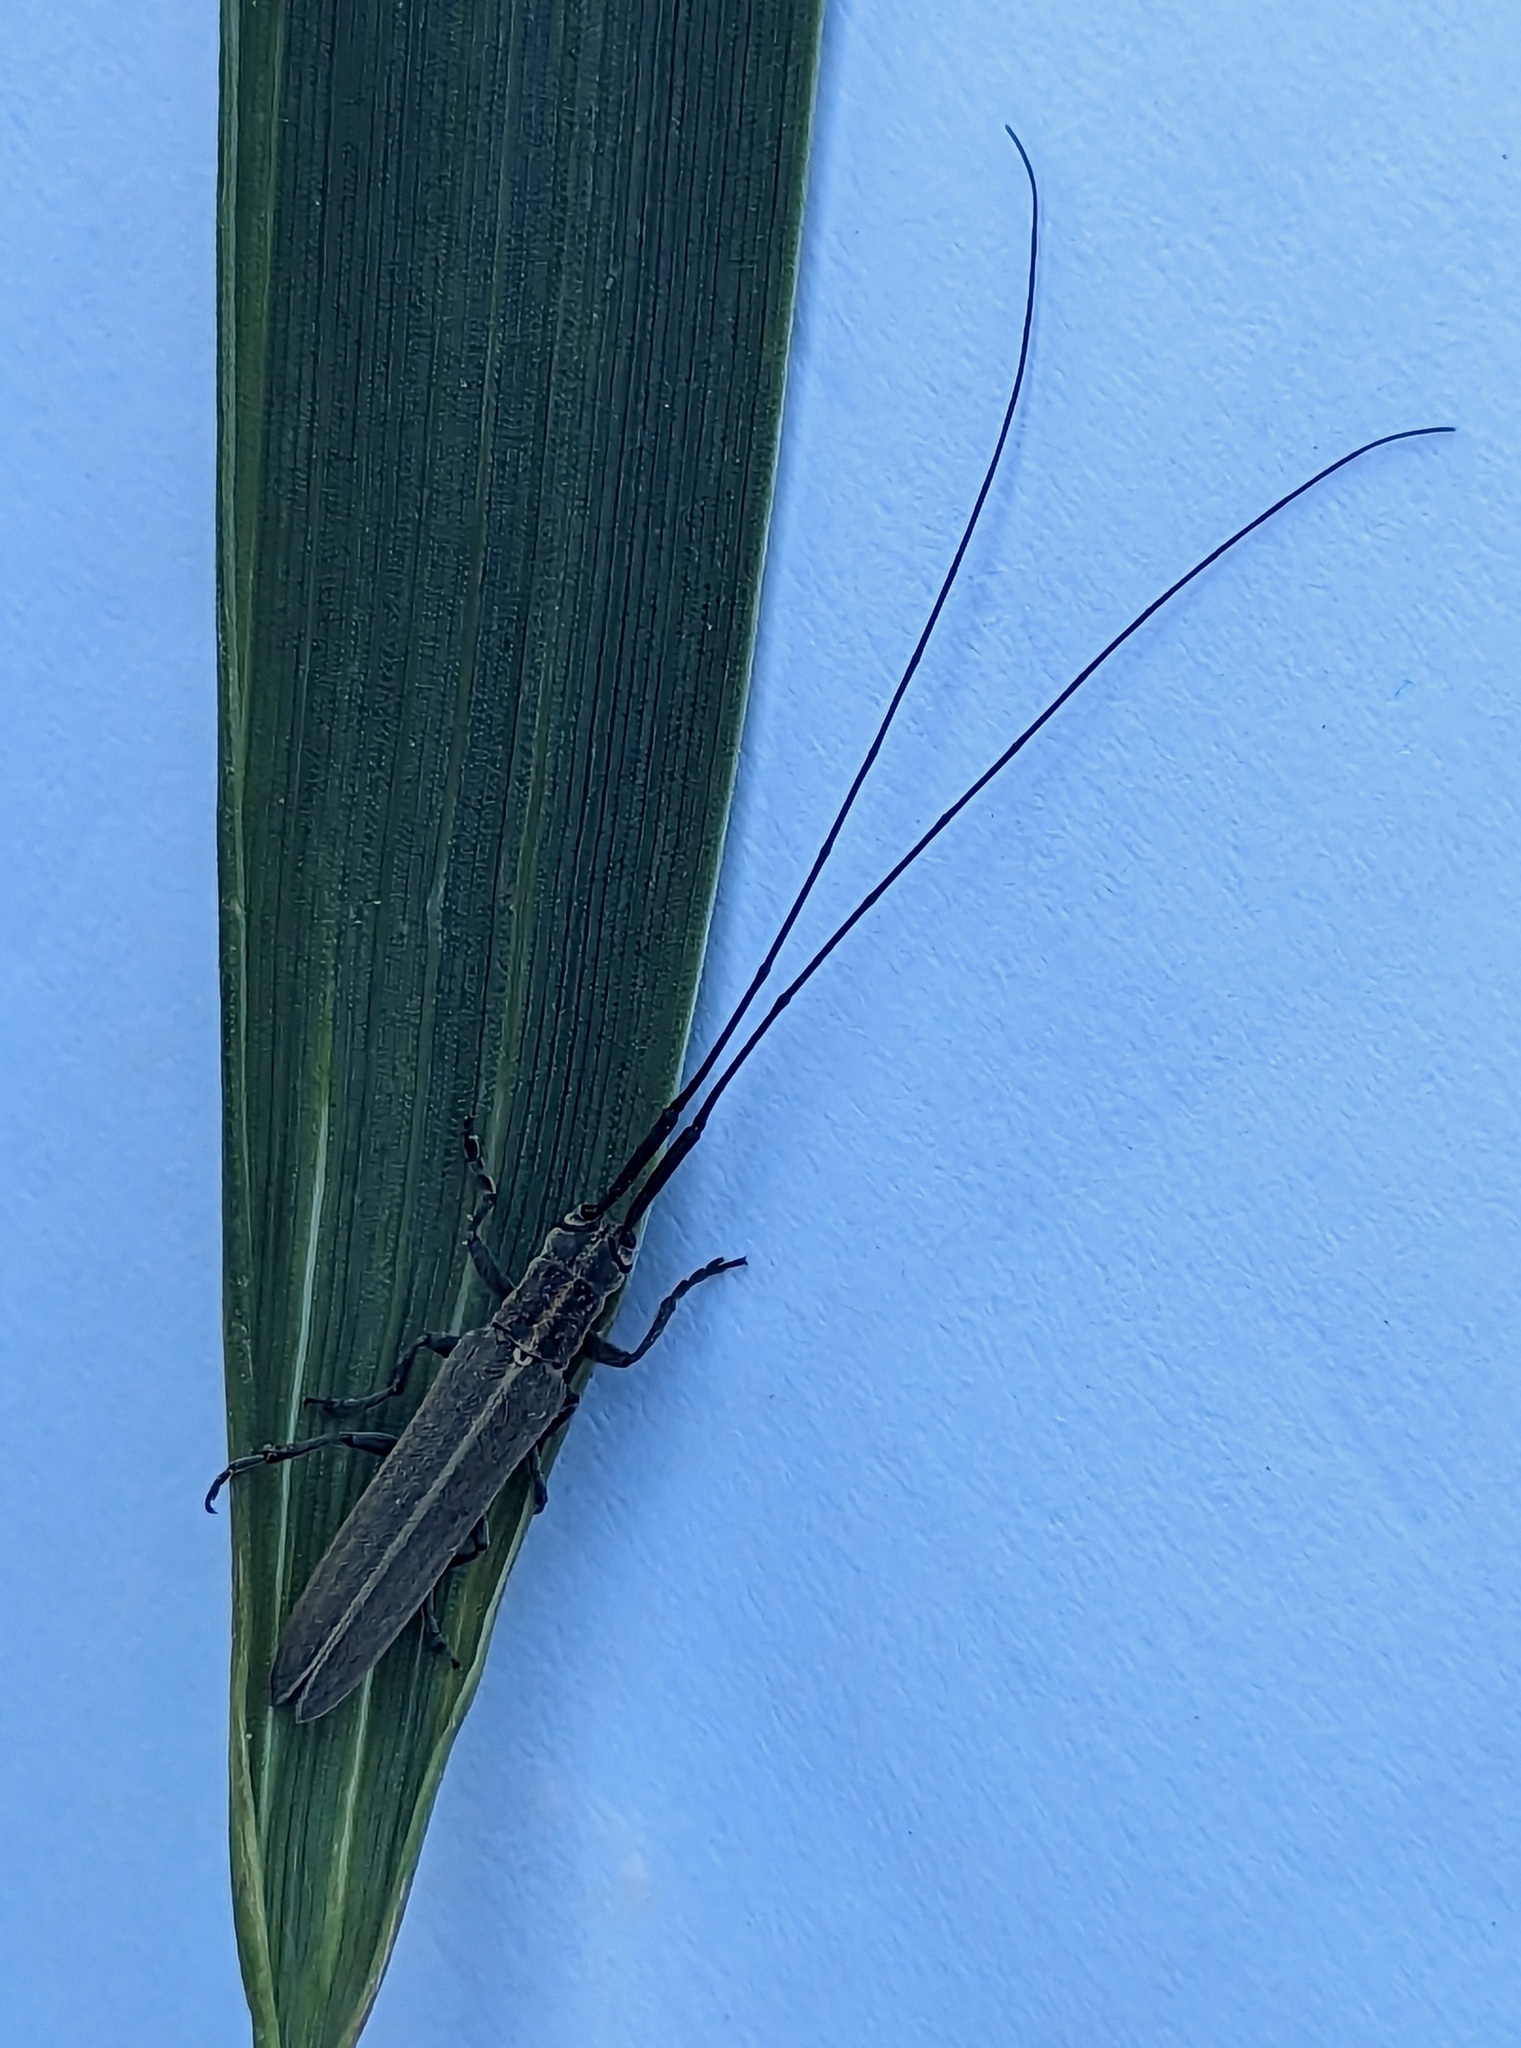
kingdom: Animalia
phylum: Arthropoda
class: Insecta
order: Coleoptera
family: Cerambycidae
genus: Calamobius
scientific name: Calamobius filum
